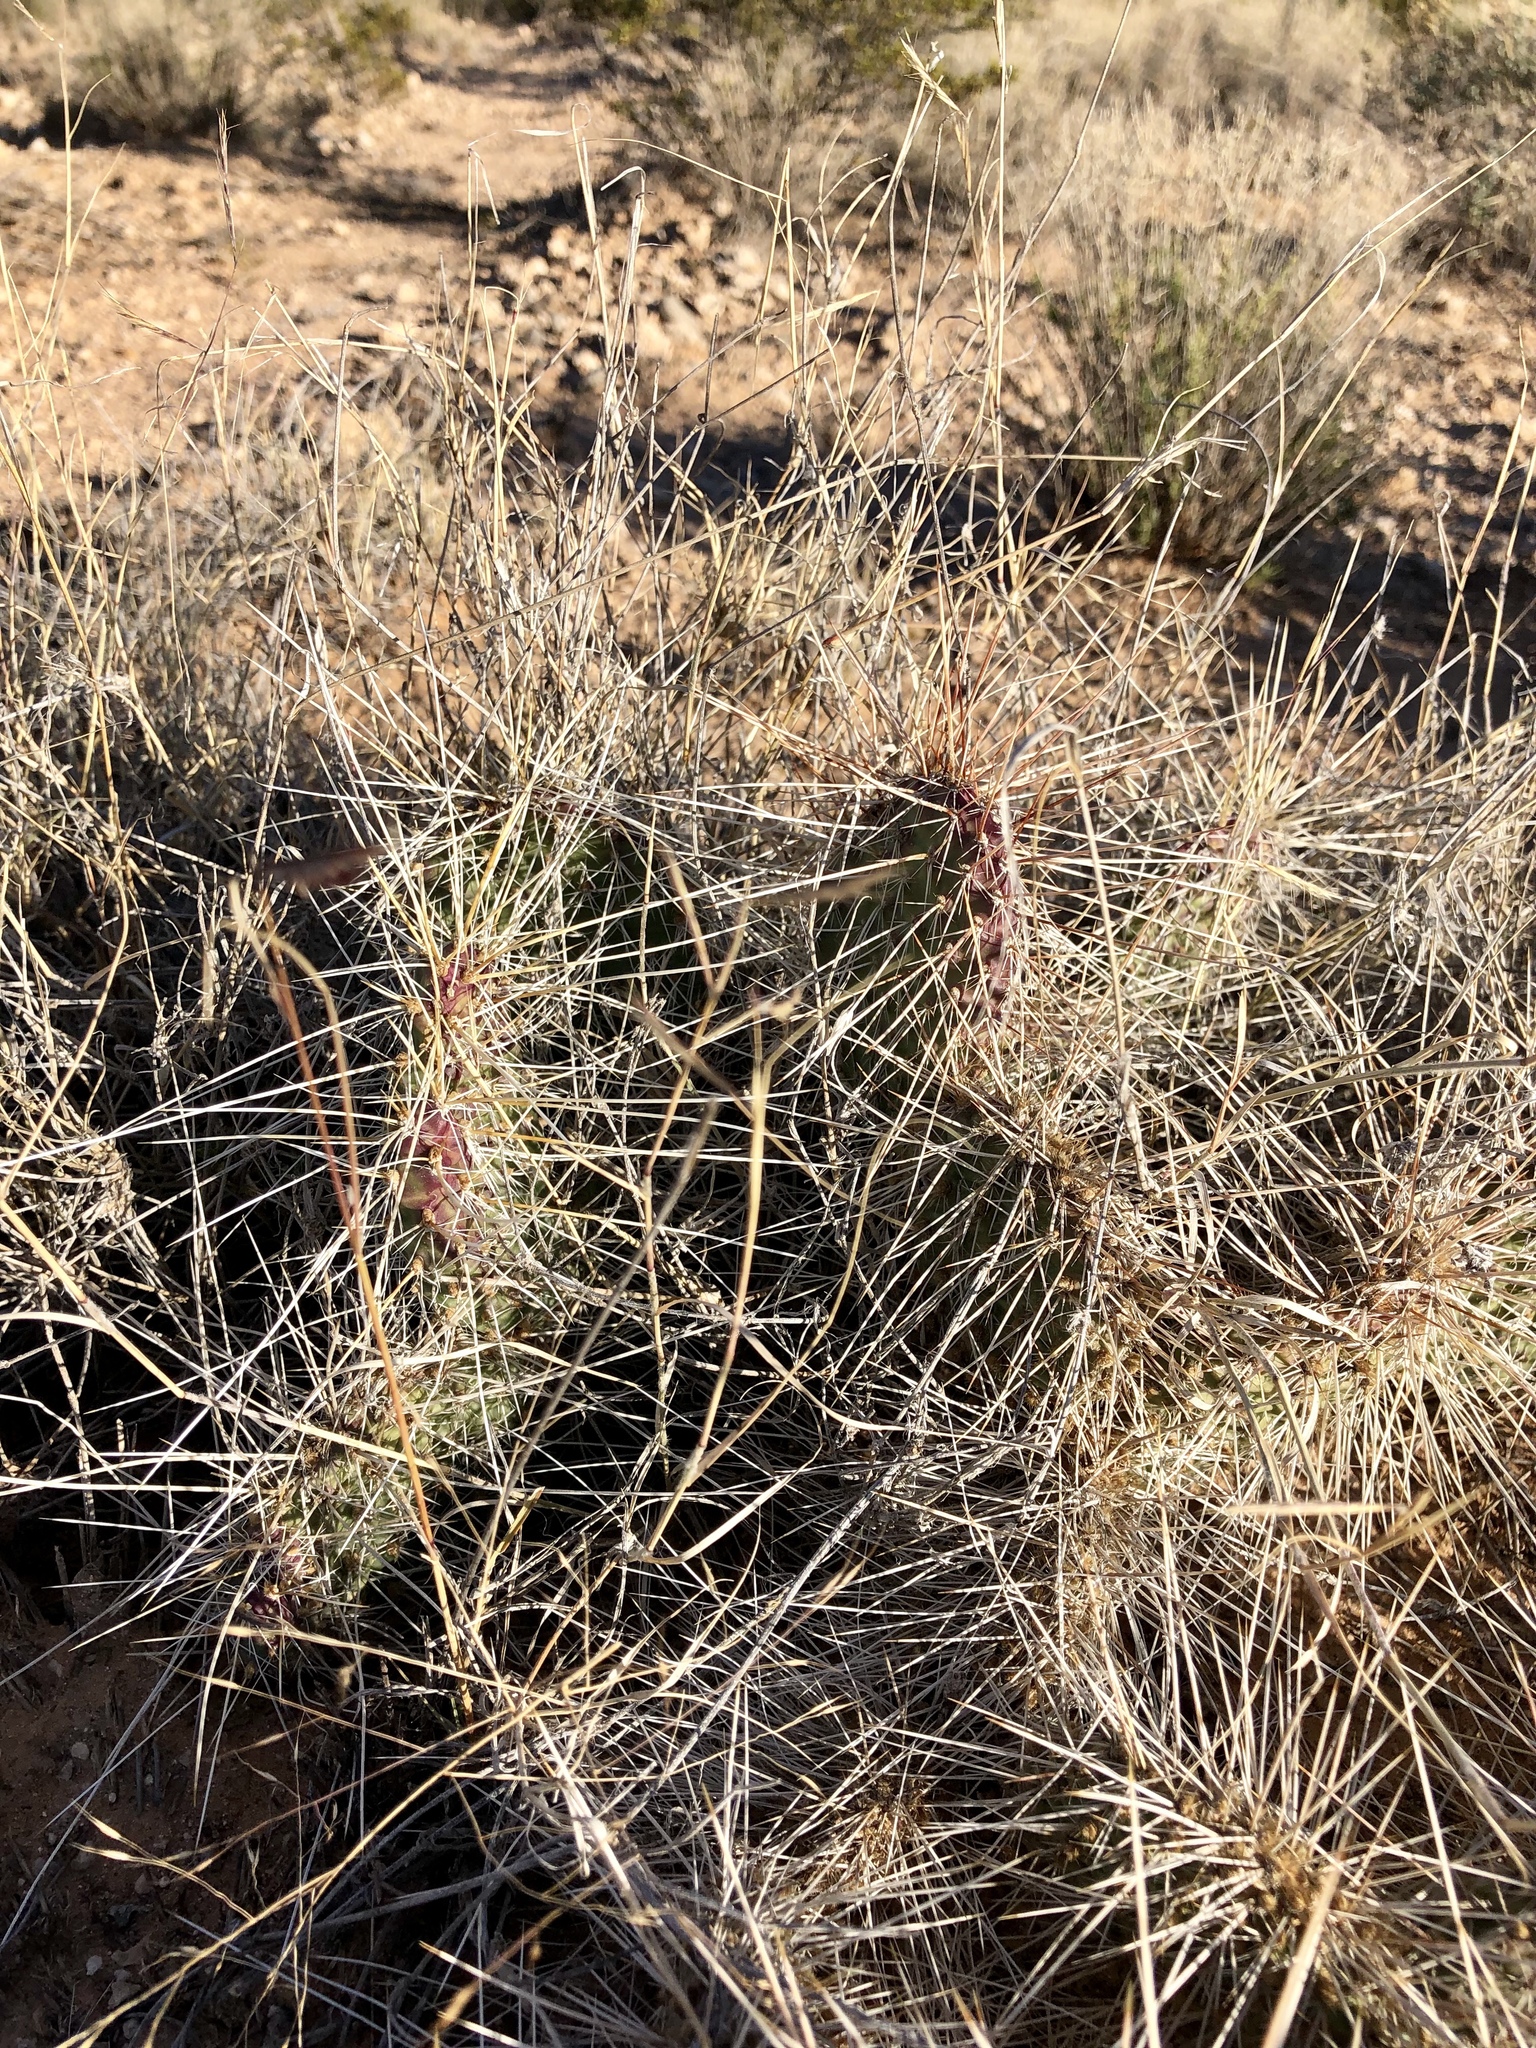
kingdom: Plantae
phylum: Tracheophyta
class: Magnoliopsida
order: Caryophyllales
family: Cactaceae
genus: Opuntia
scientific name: Opuntia polyacantha
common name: Plains prickly-pear
